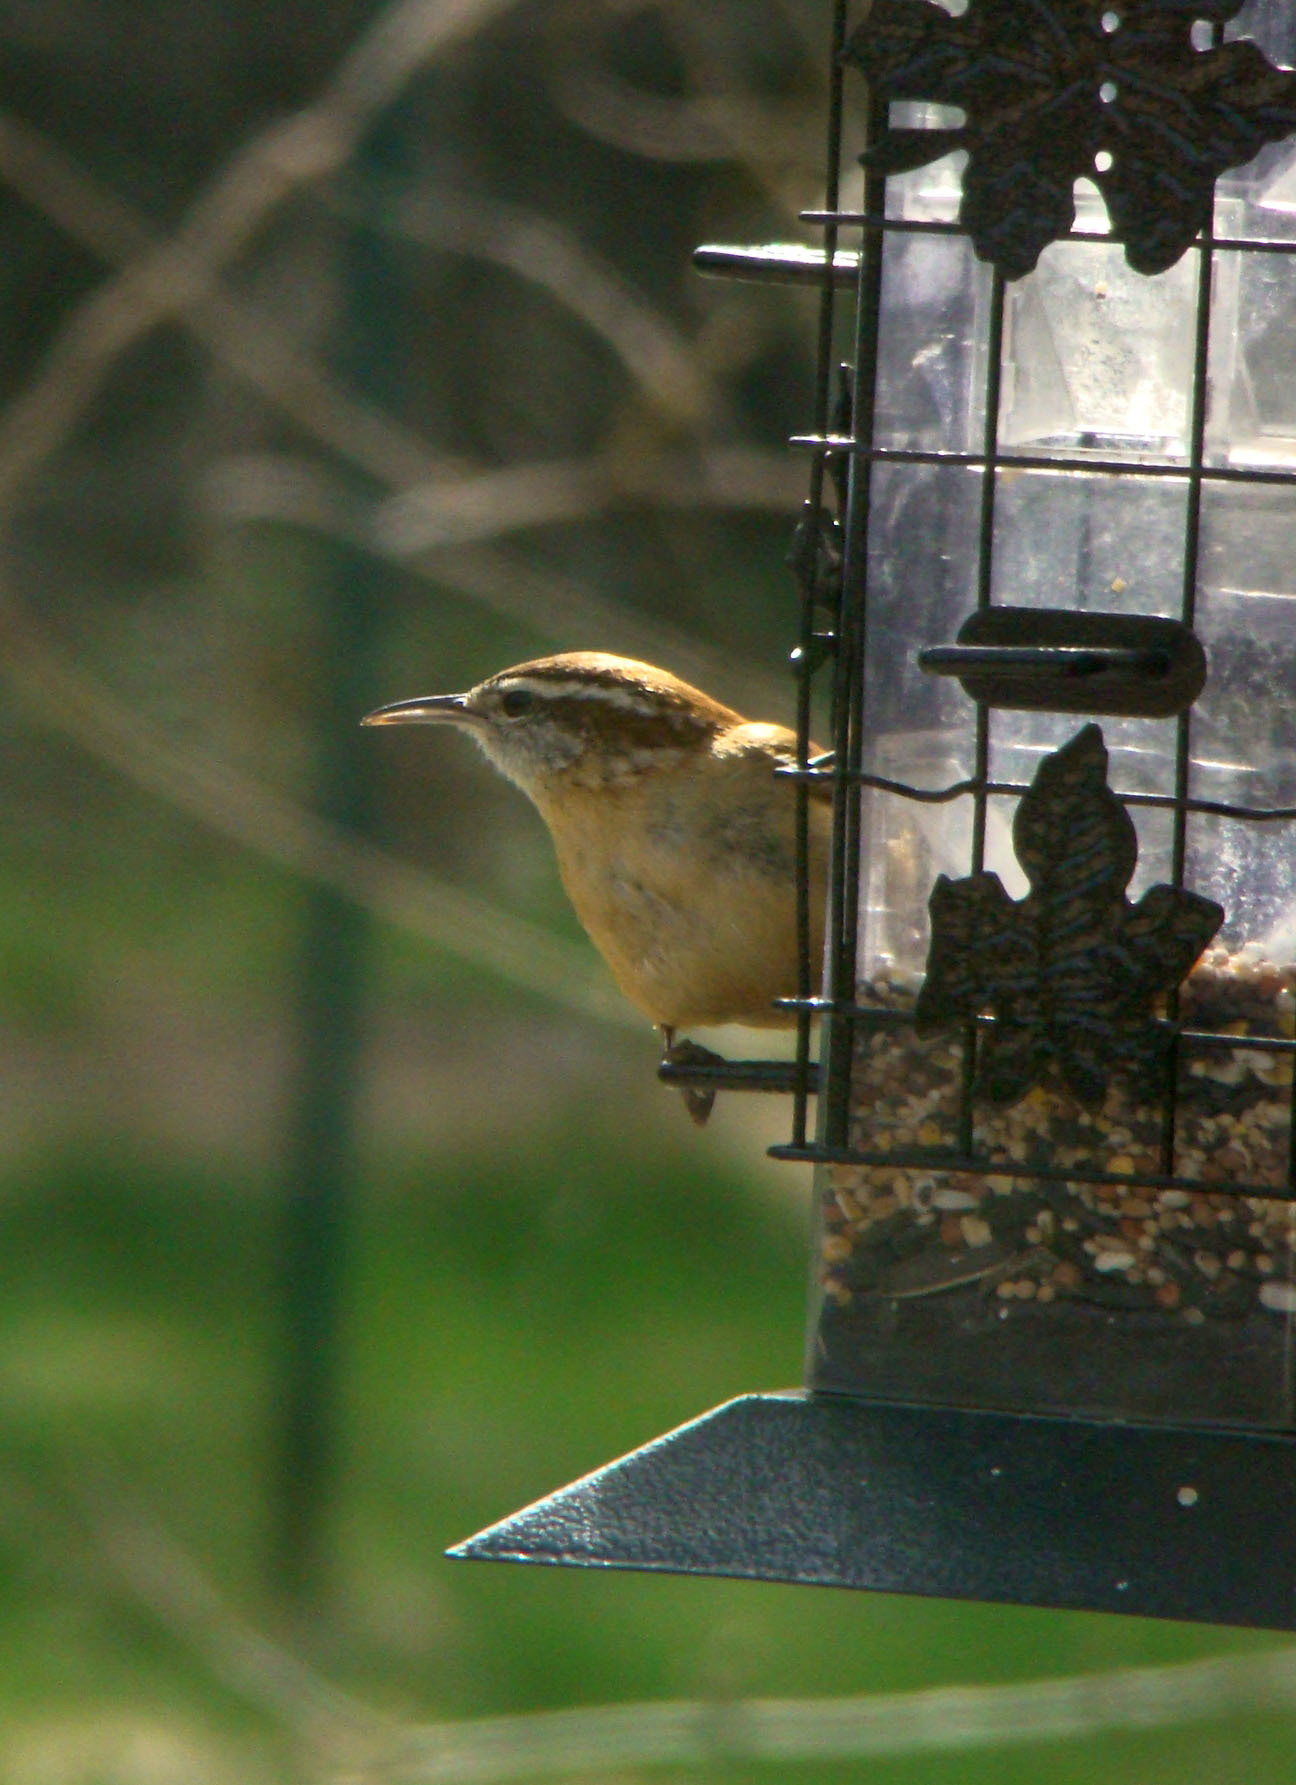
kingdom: Animalia
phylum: Chordata
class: Aves
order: Passeriformes
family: Troglodytidae
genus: Thryothorus
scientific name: Thryothorus ludovicianus
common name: Carolina wren
